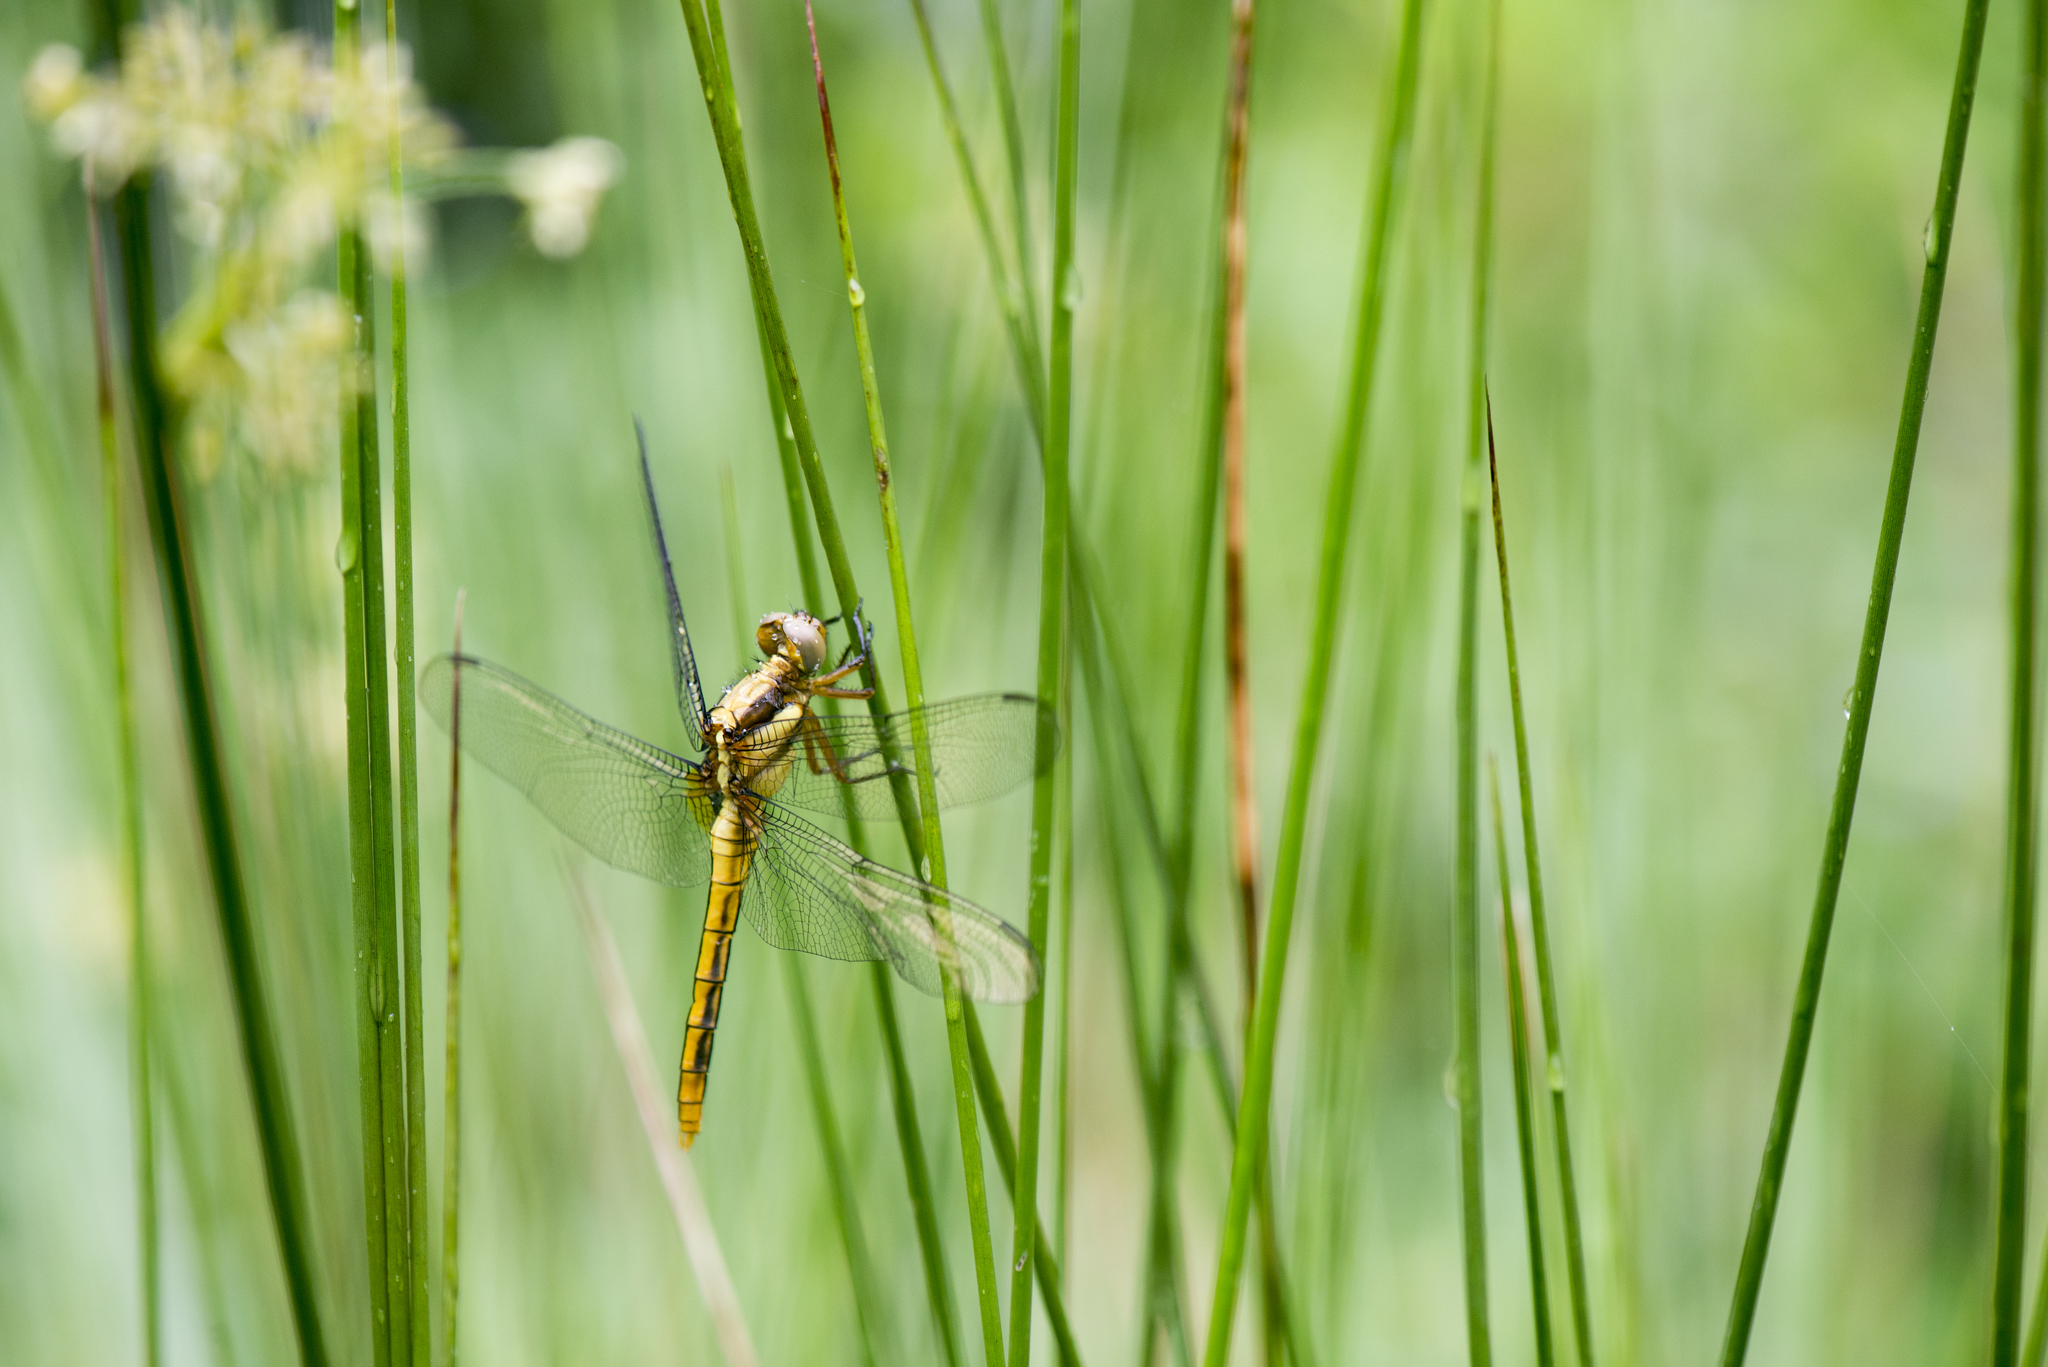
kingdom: Animalia
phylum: Arthropoda
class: Insecta
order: Odonata
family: Libellulidae
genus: Orthetrum
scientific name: Orthetrum glaucum
